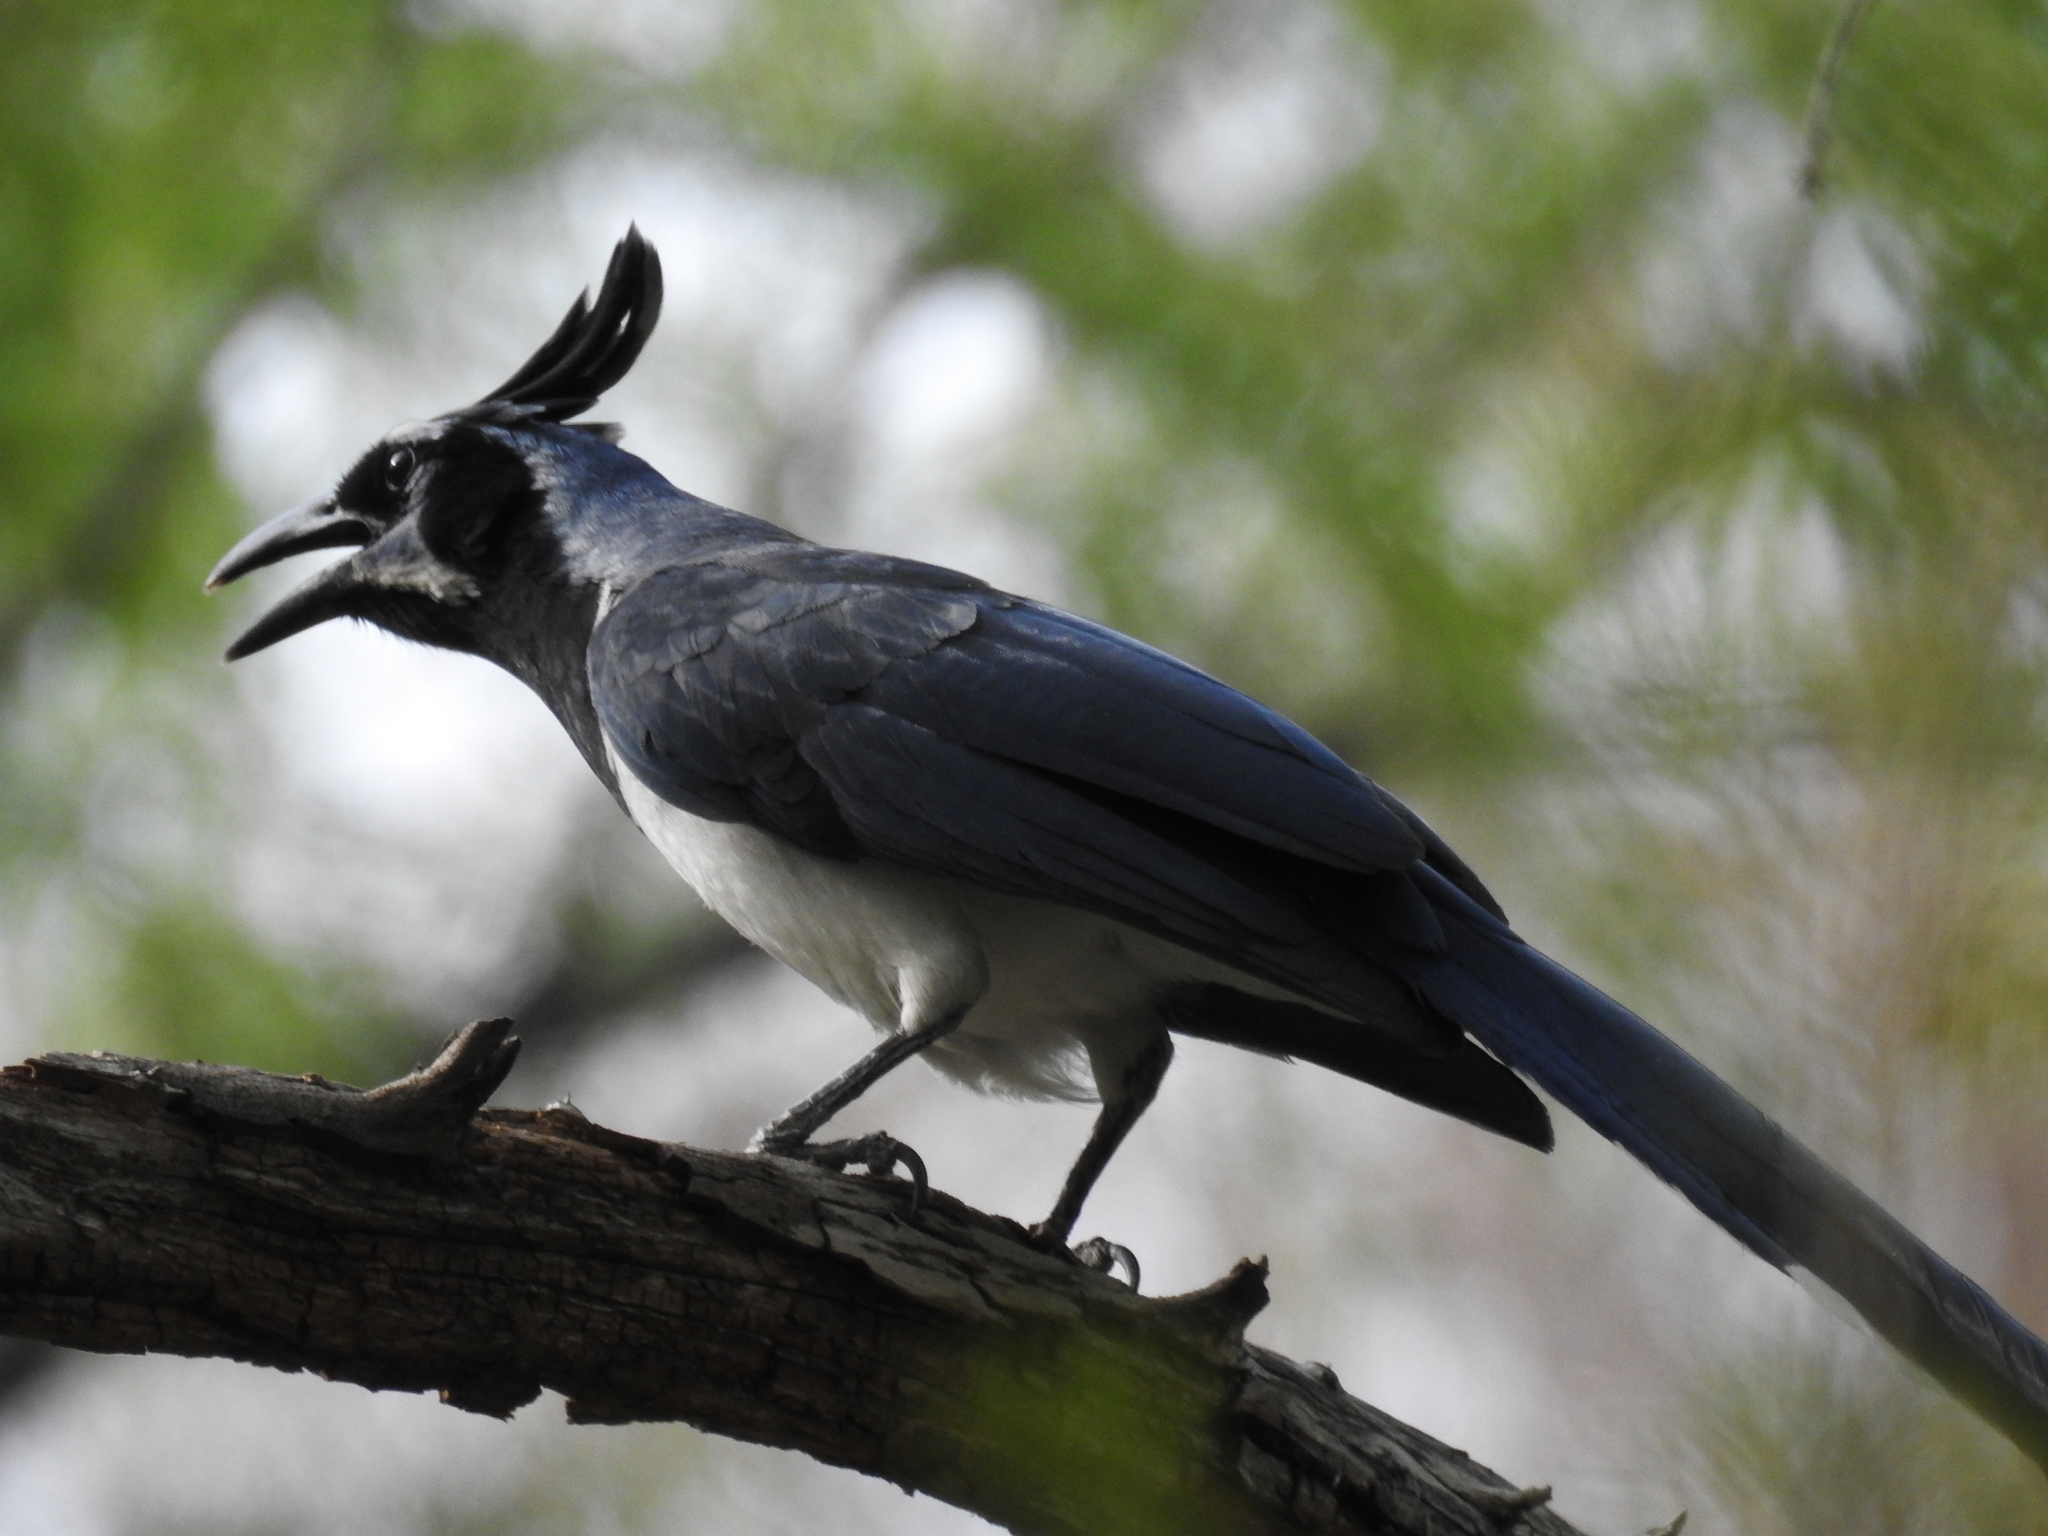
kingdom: Animalia
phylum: Chordata
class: Aves
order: Passeriformes
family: Corvidae
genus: Calocitta
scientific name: Calocitta colliei
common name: Black-throated magpie-jay
